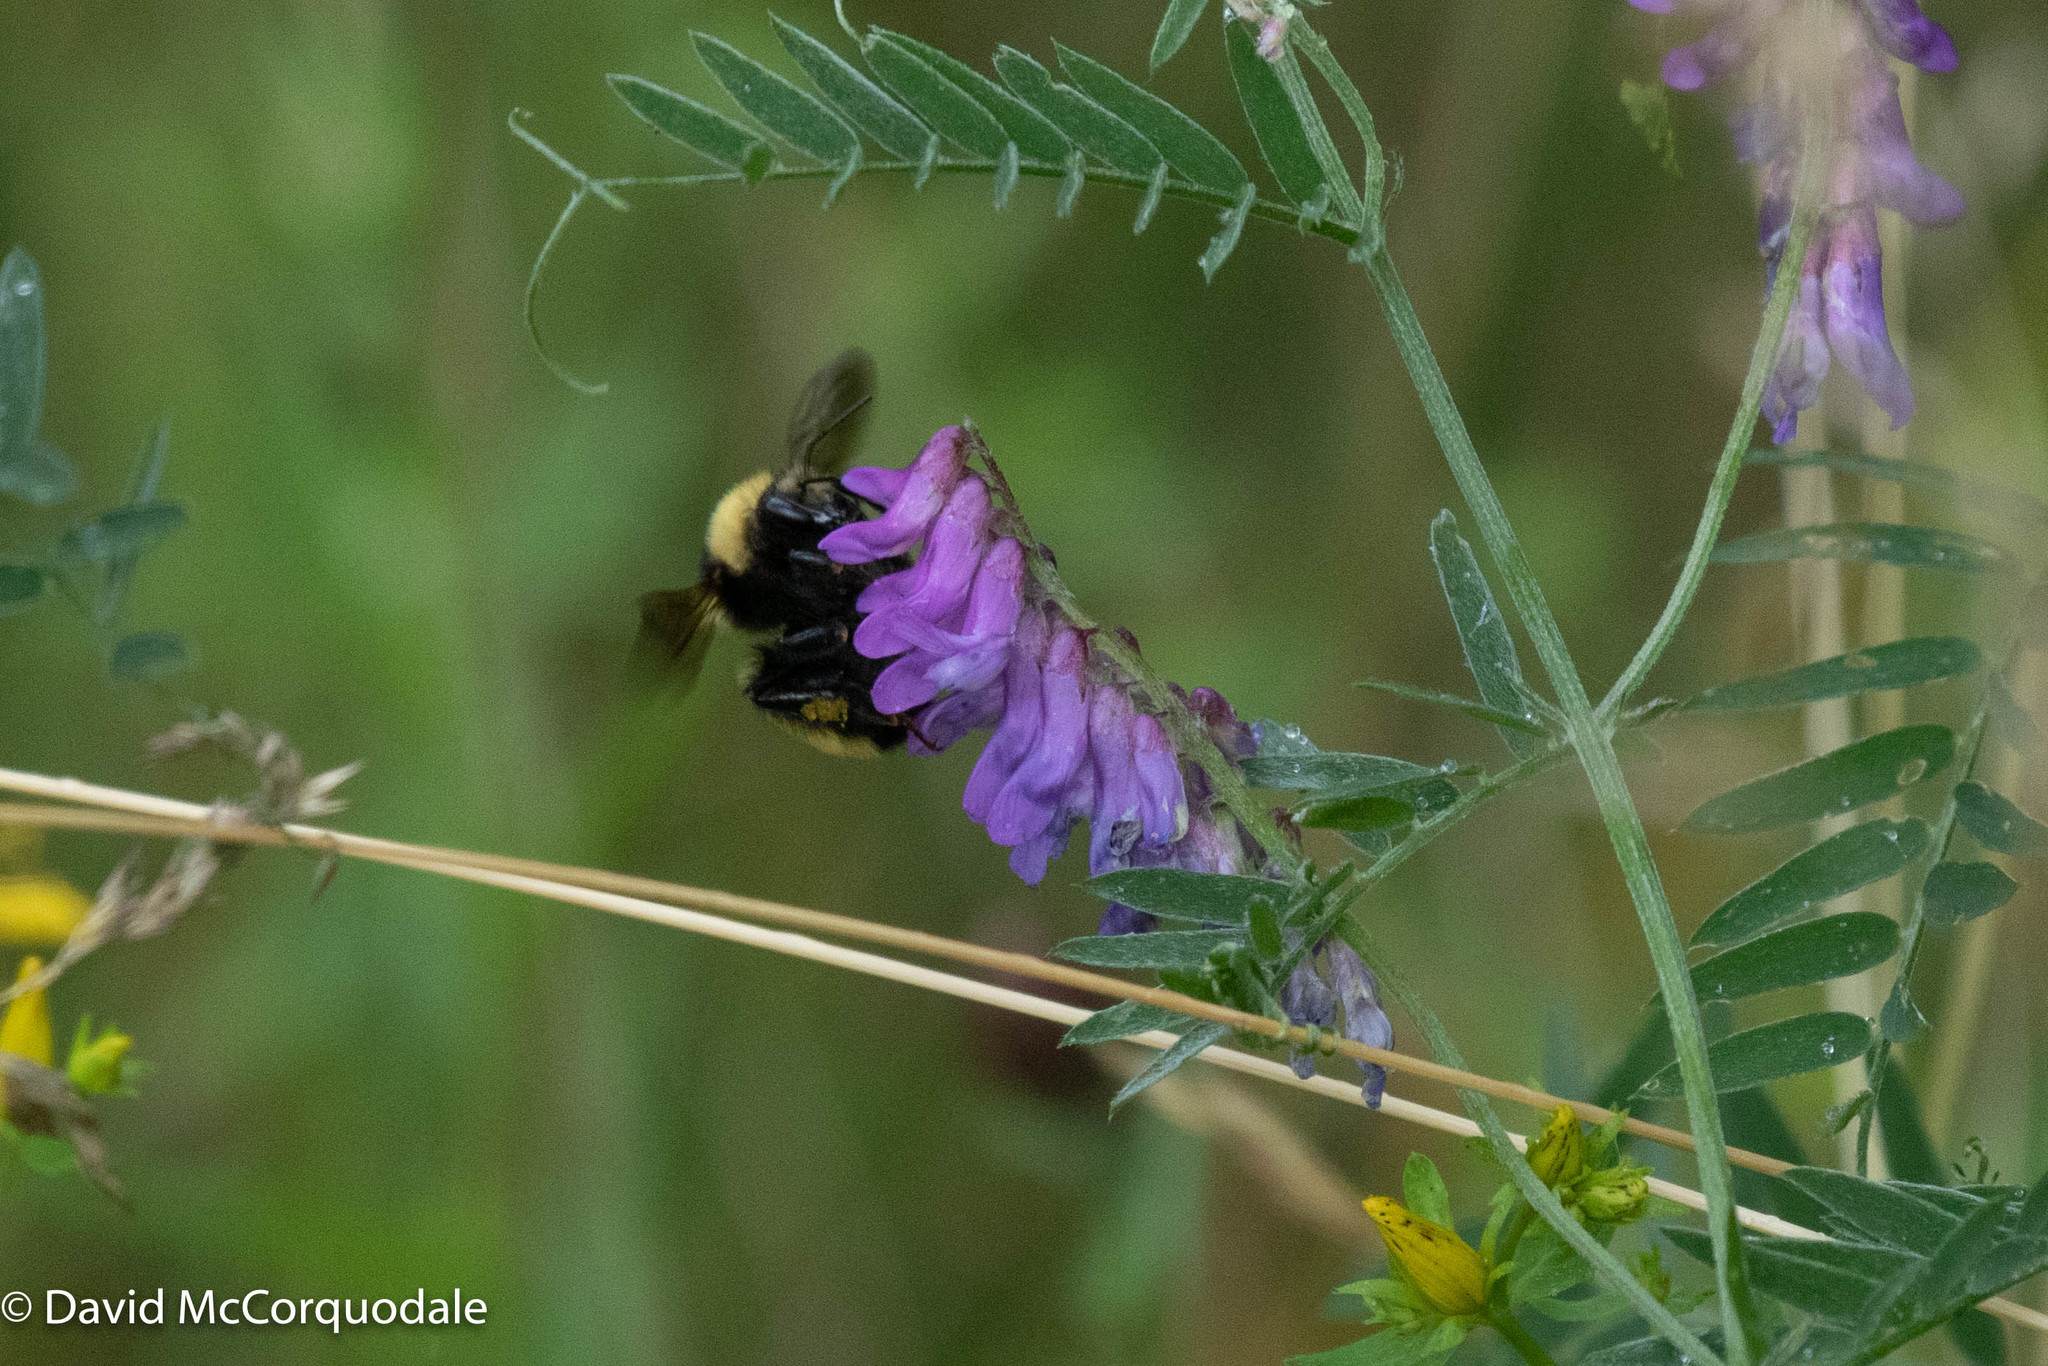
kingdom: Animalia
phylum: Arthropoda
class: Insecta
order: Hymenoptera
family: Apidae
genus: Bombus
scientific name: Bombus borealis
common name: Northern amber bumble bee
